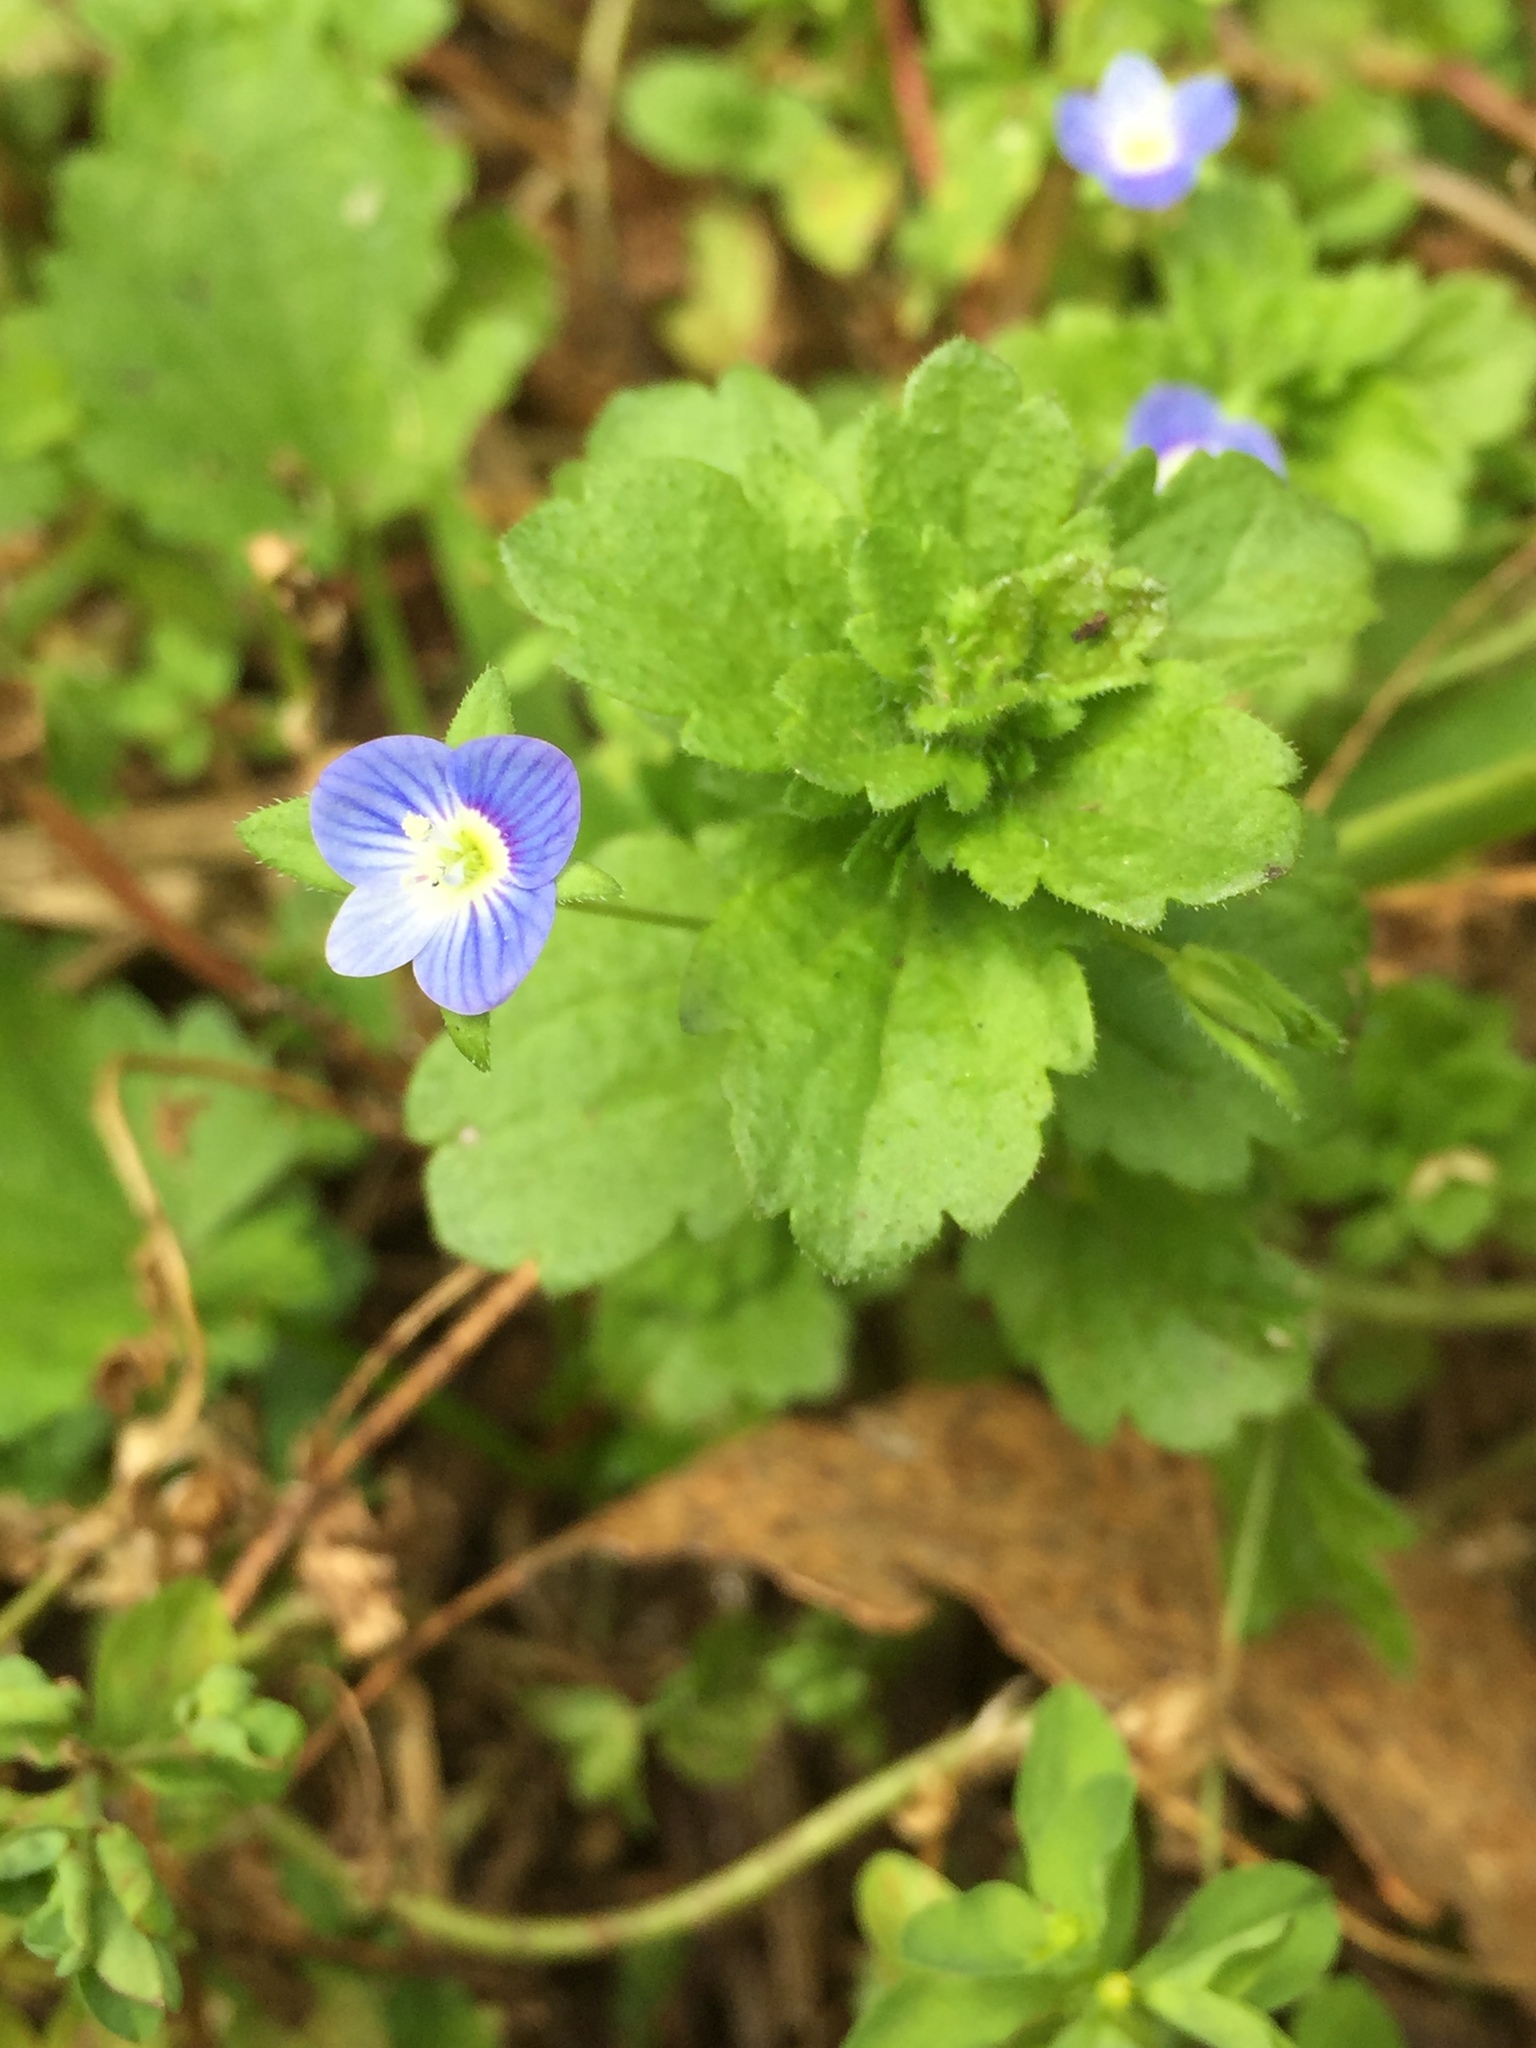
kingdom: Plantae
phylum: Tracheophyta
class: Magnoliopsida
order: Lamiales
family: Plantaginaceae
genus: Veronica
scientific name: Veronica persica
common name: Common field-speedwell
